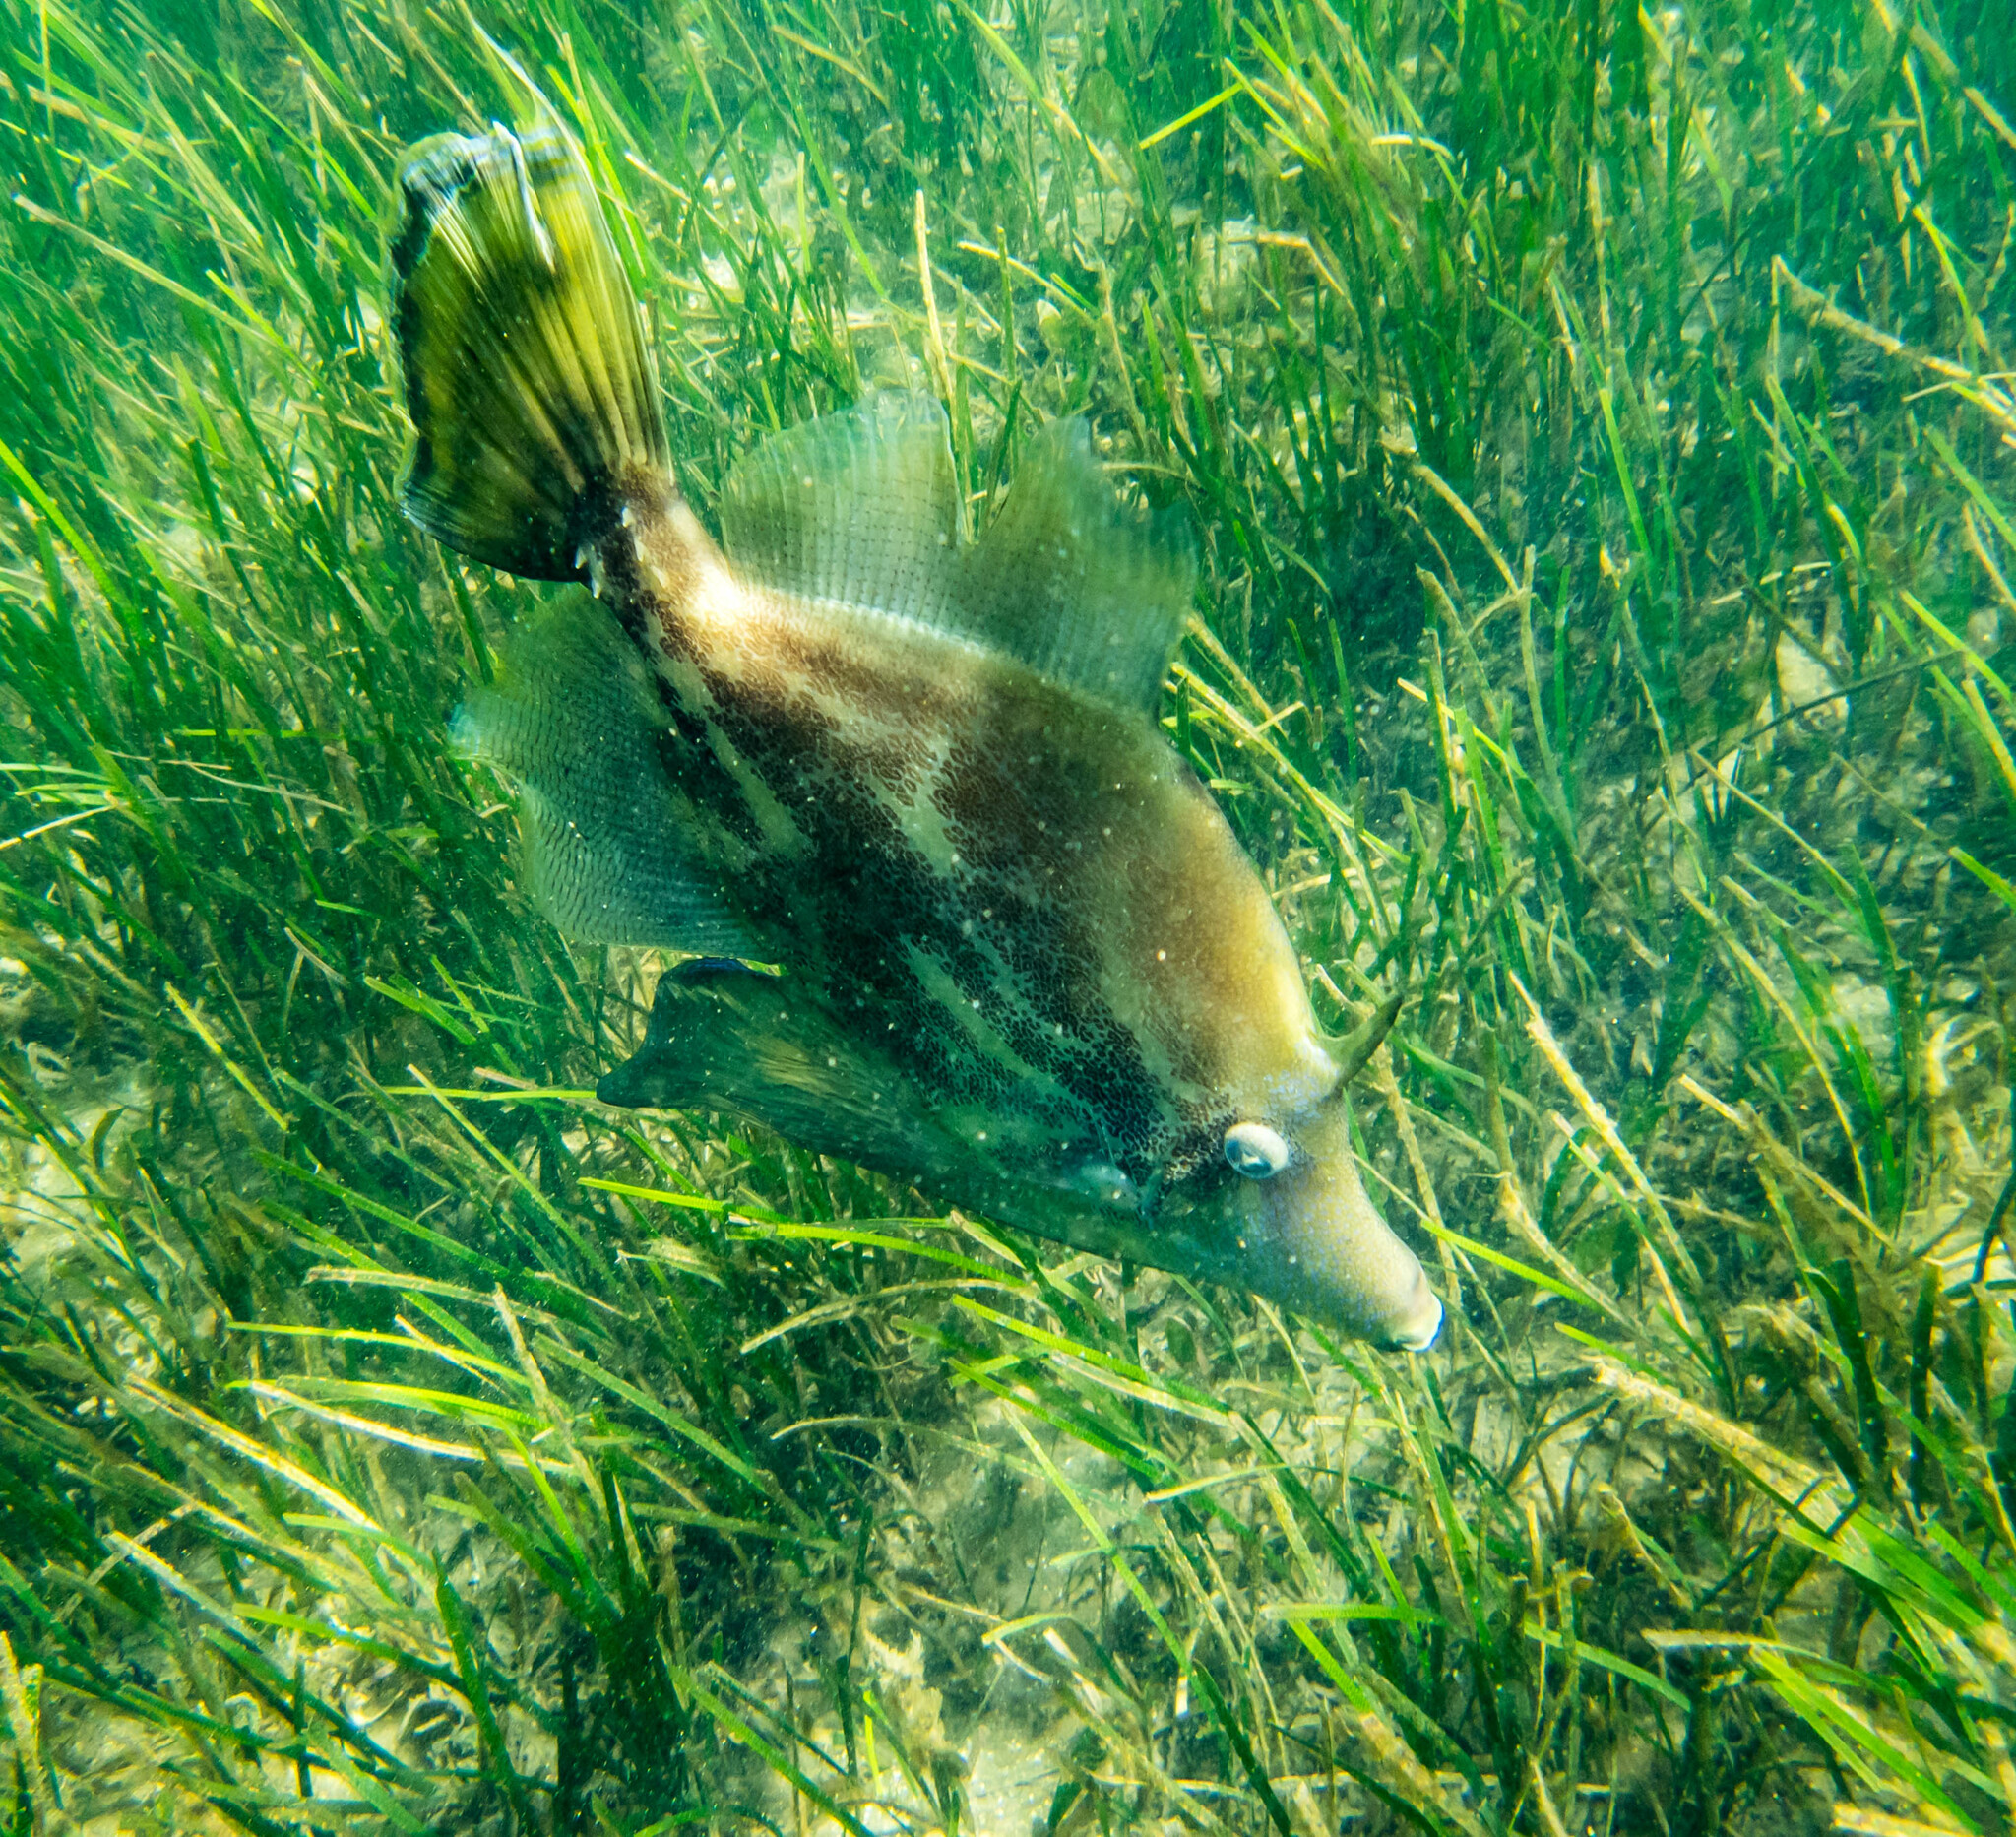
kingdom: Animalia
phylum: Chordata
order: Tetraodontiformes
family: Monacanthidae
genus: Monacanthus
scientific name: Monacanthus chinensis
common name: Centreboard leatherjacket
